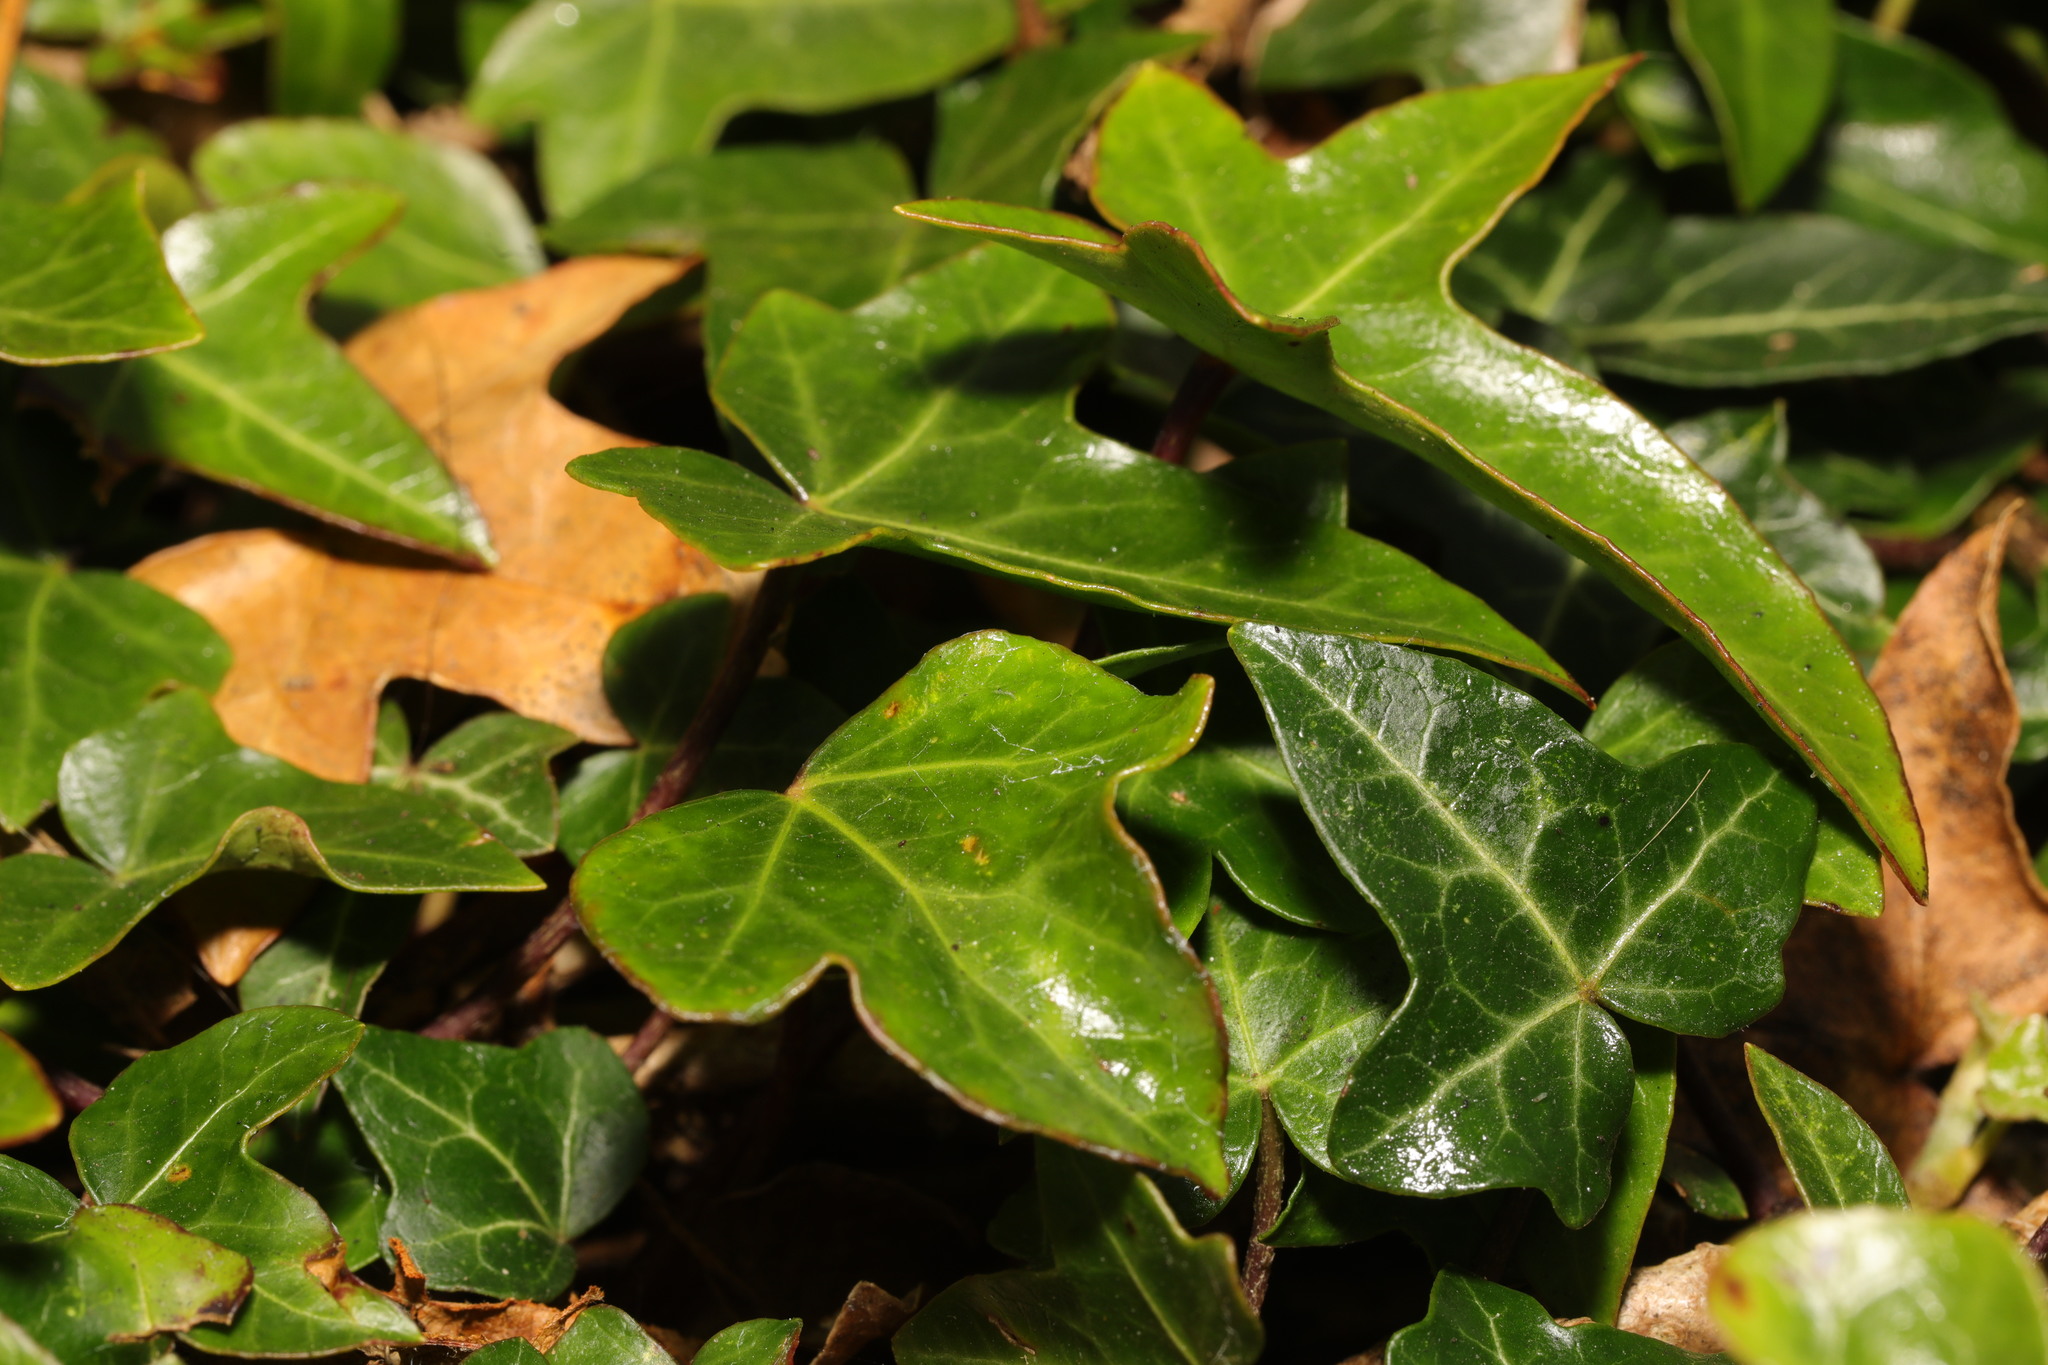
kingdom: Plantae
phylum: Tracheophyta
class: Magnoliopsida
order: Apiales
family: Araliaceae
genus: Hedera
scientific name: Hedera helix
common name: Ivy
